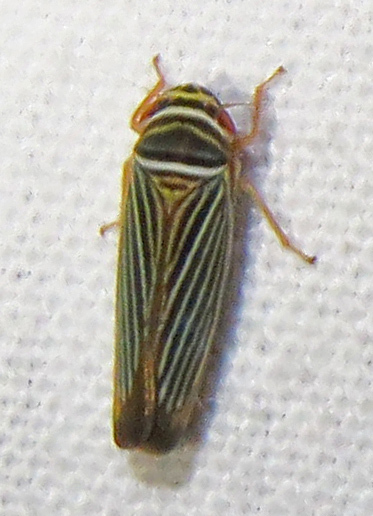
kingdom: Animalia
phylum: Arthropoda
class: Insecta
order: Hemiptera
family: Cicadellidae
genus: Tylozygus
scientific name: Tylozygus bifidus
